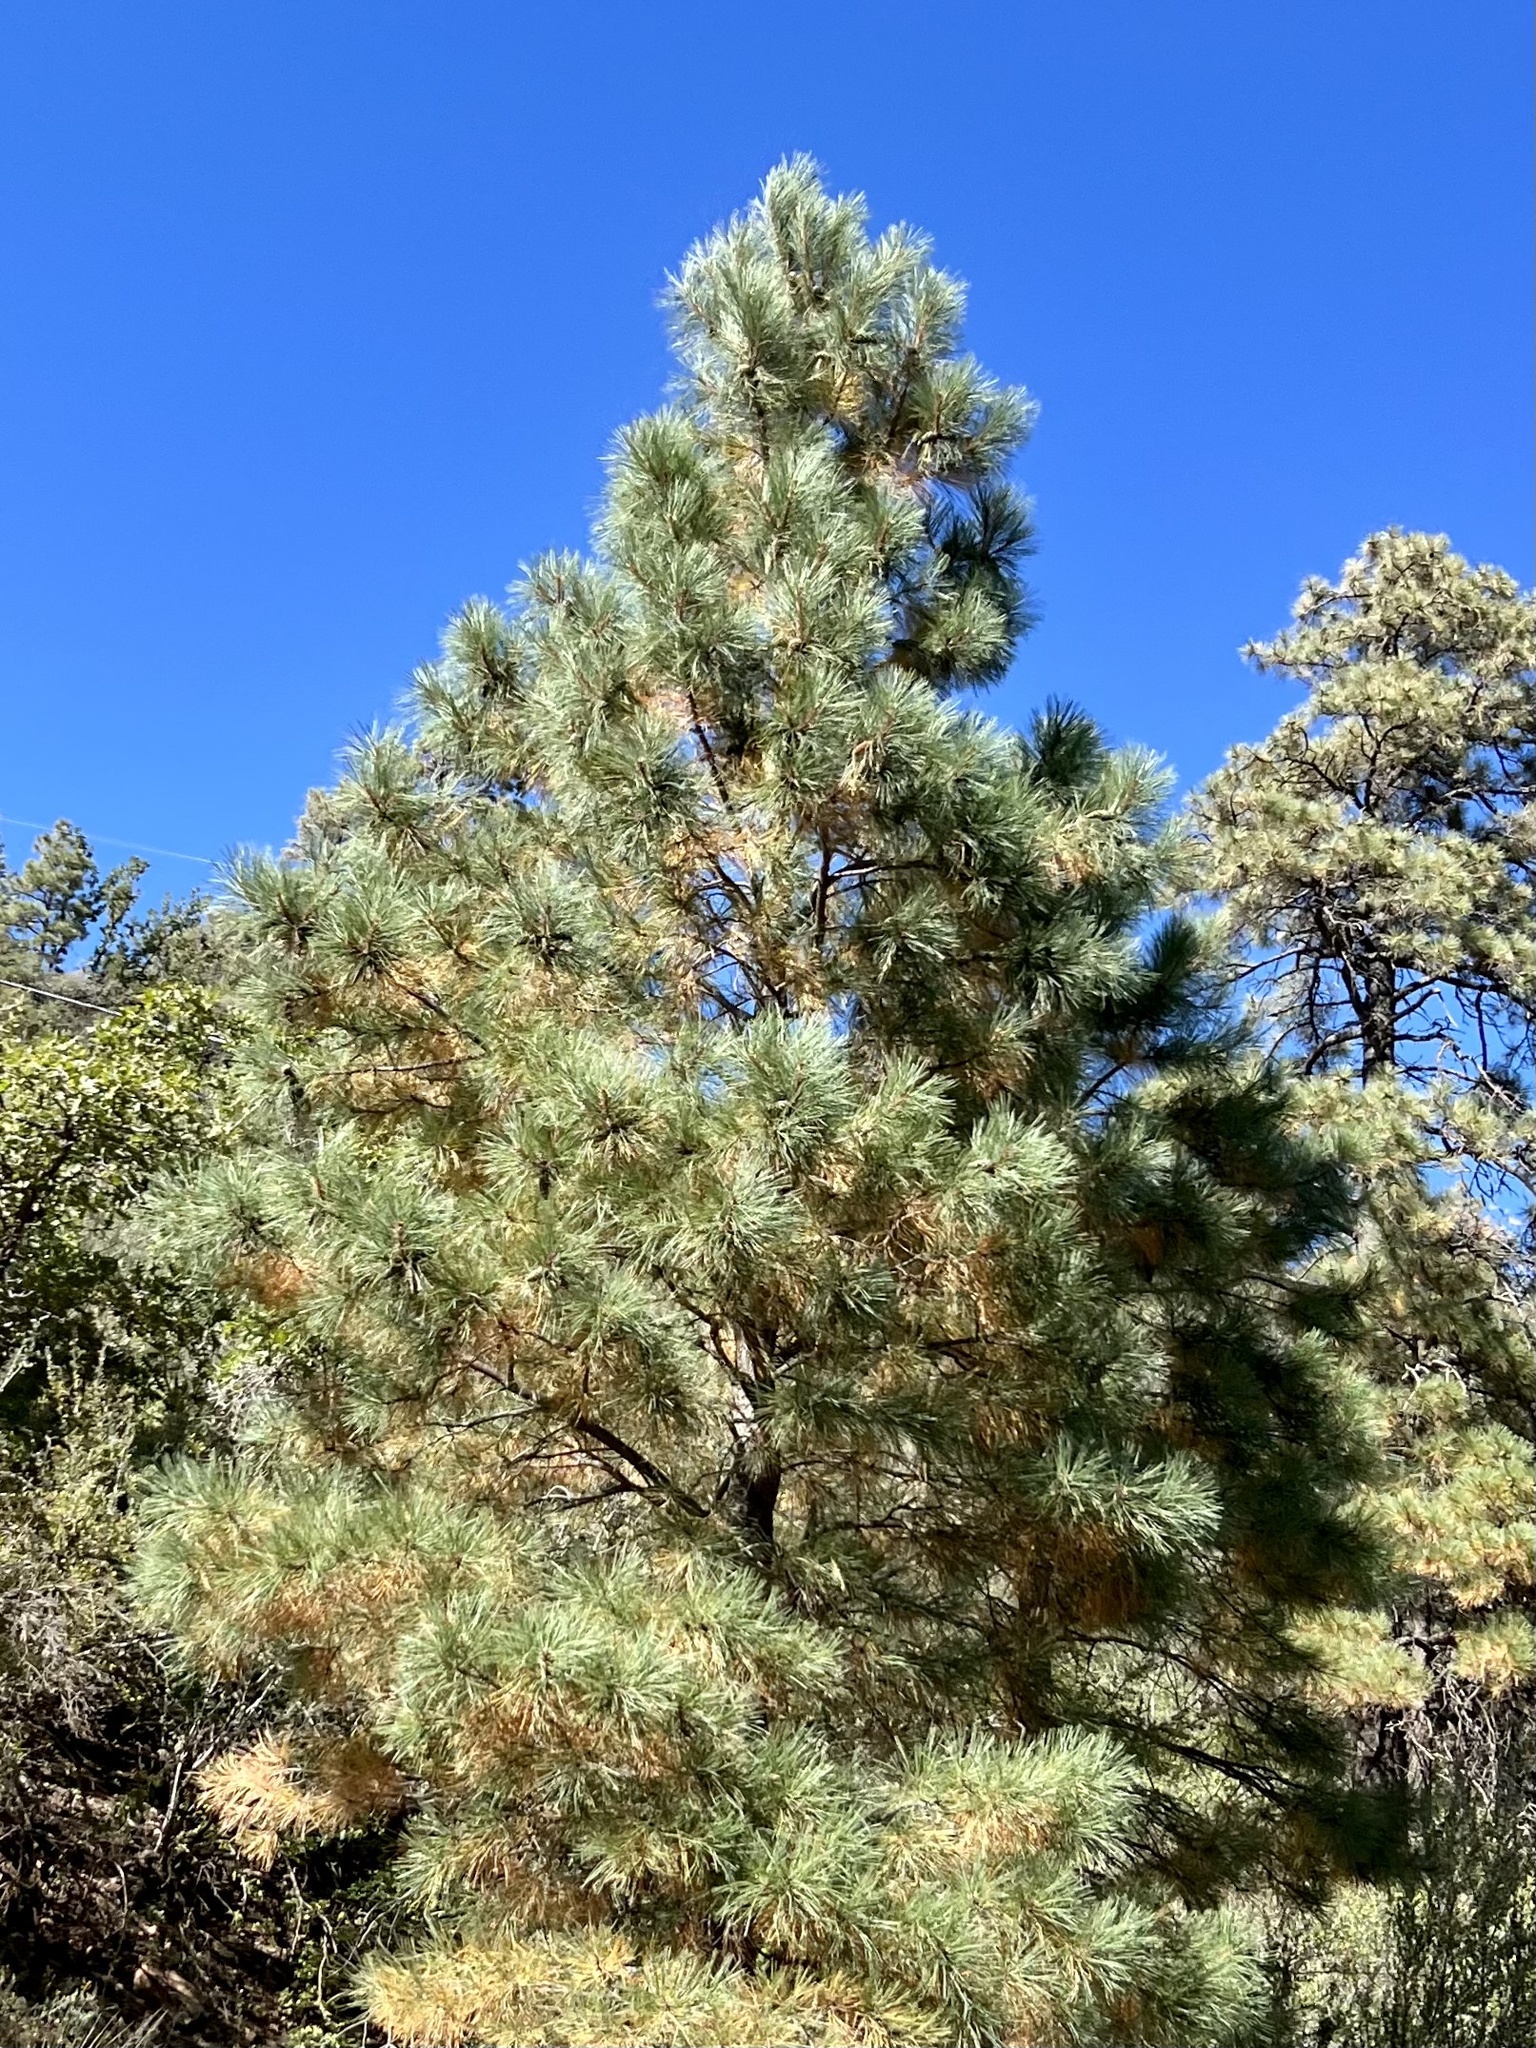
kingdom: Plantae
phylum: Tracheophyta
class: Pinopsida
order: Pinales
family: Pinaceae
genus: Pinus
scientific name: Pinus ponderosa
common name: Western yellow-pine
